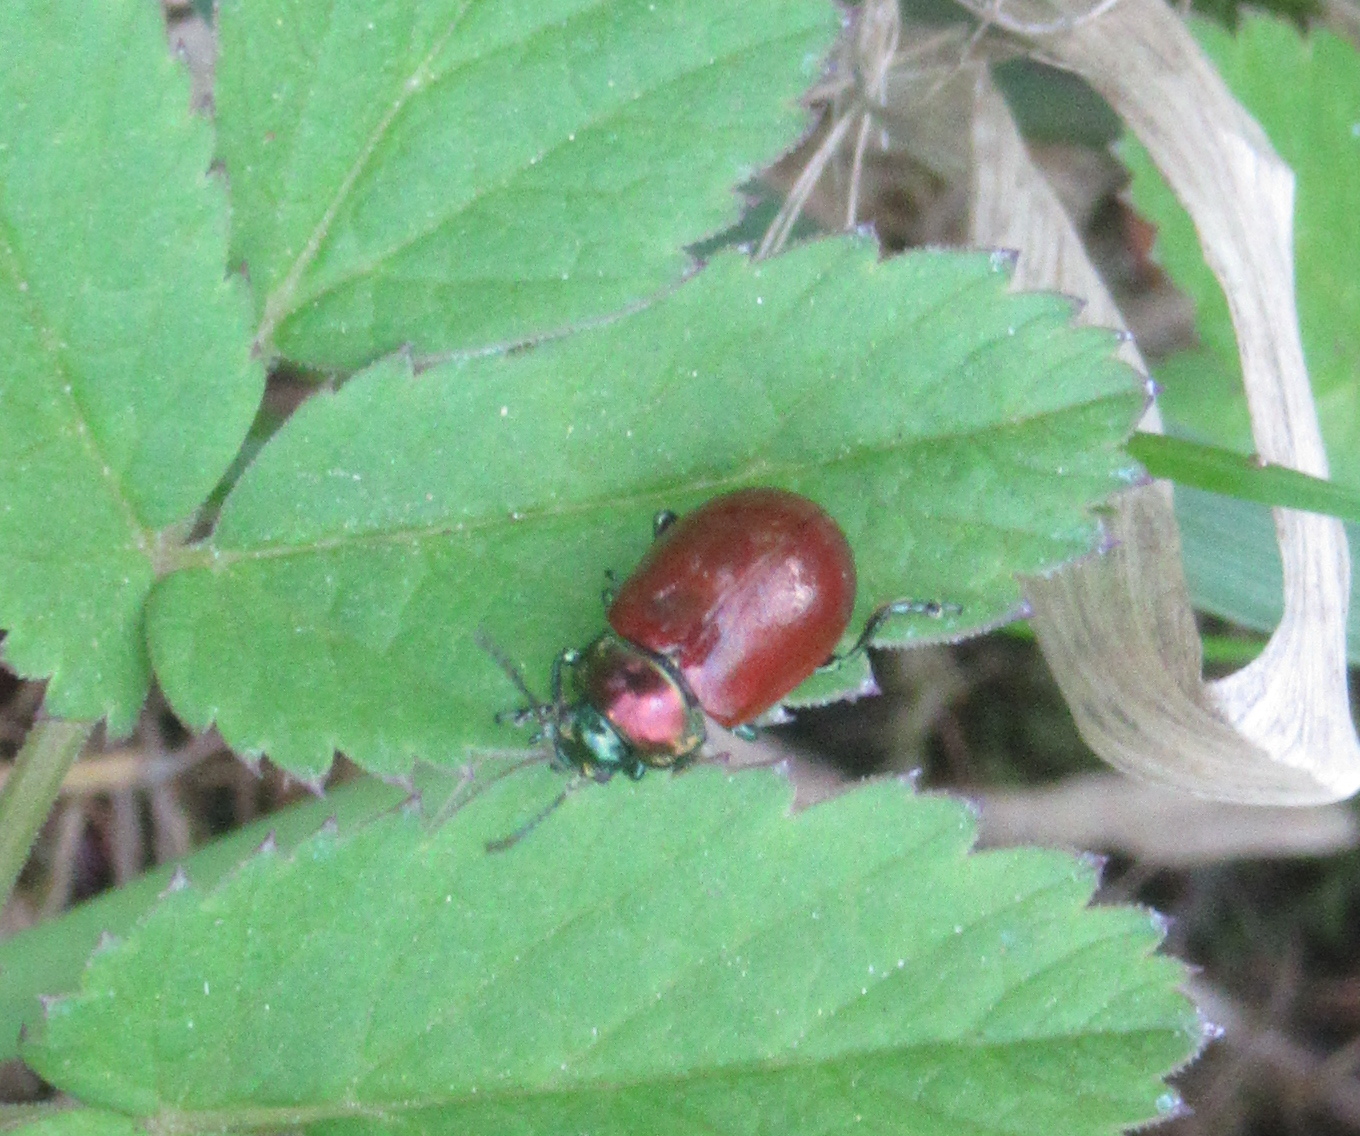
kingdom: Animalia
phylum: Arthropoda
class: Insecta
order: Coleoptera
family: Chrysomelidae
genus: Chrysomela
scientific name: Chrysomela polita
